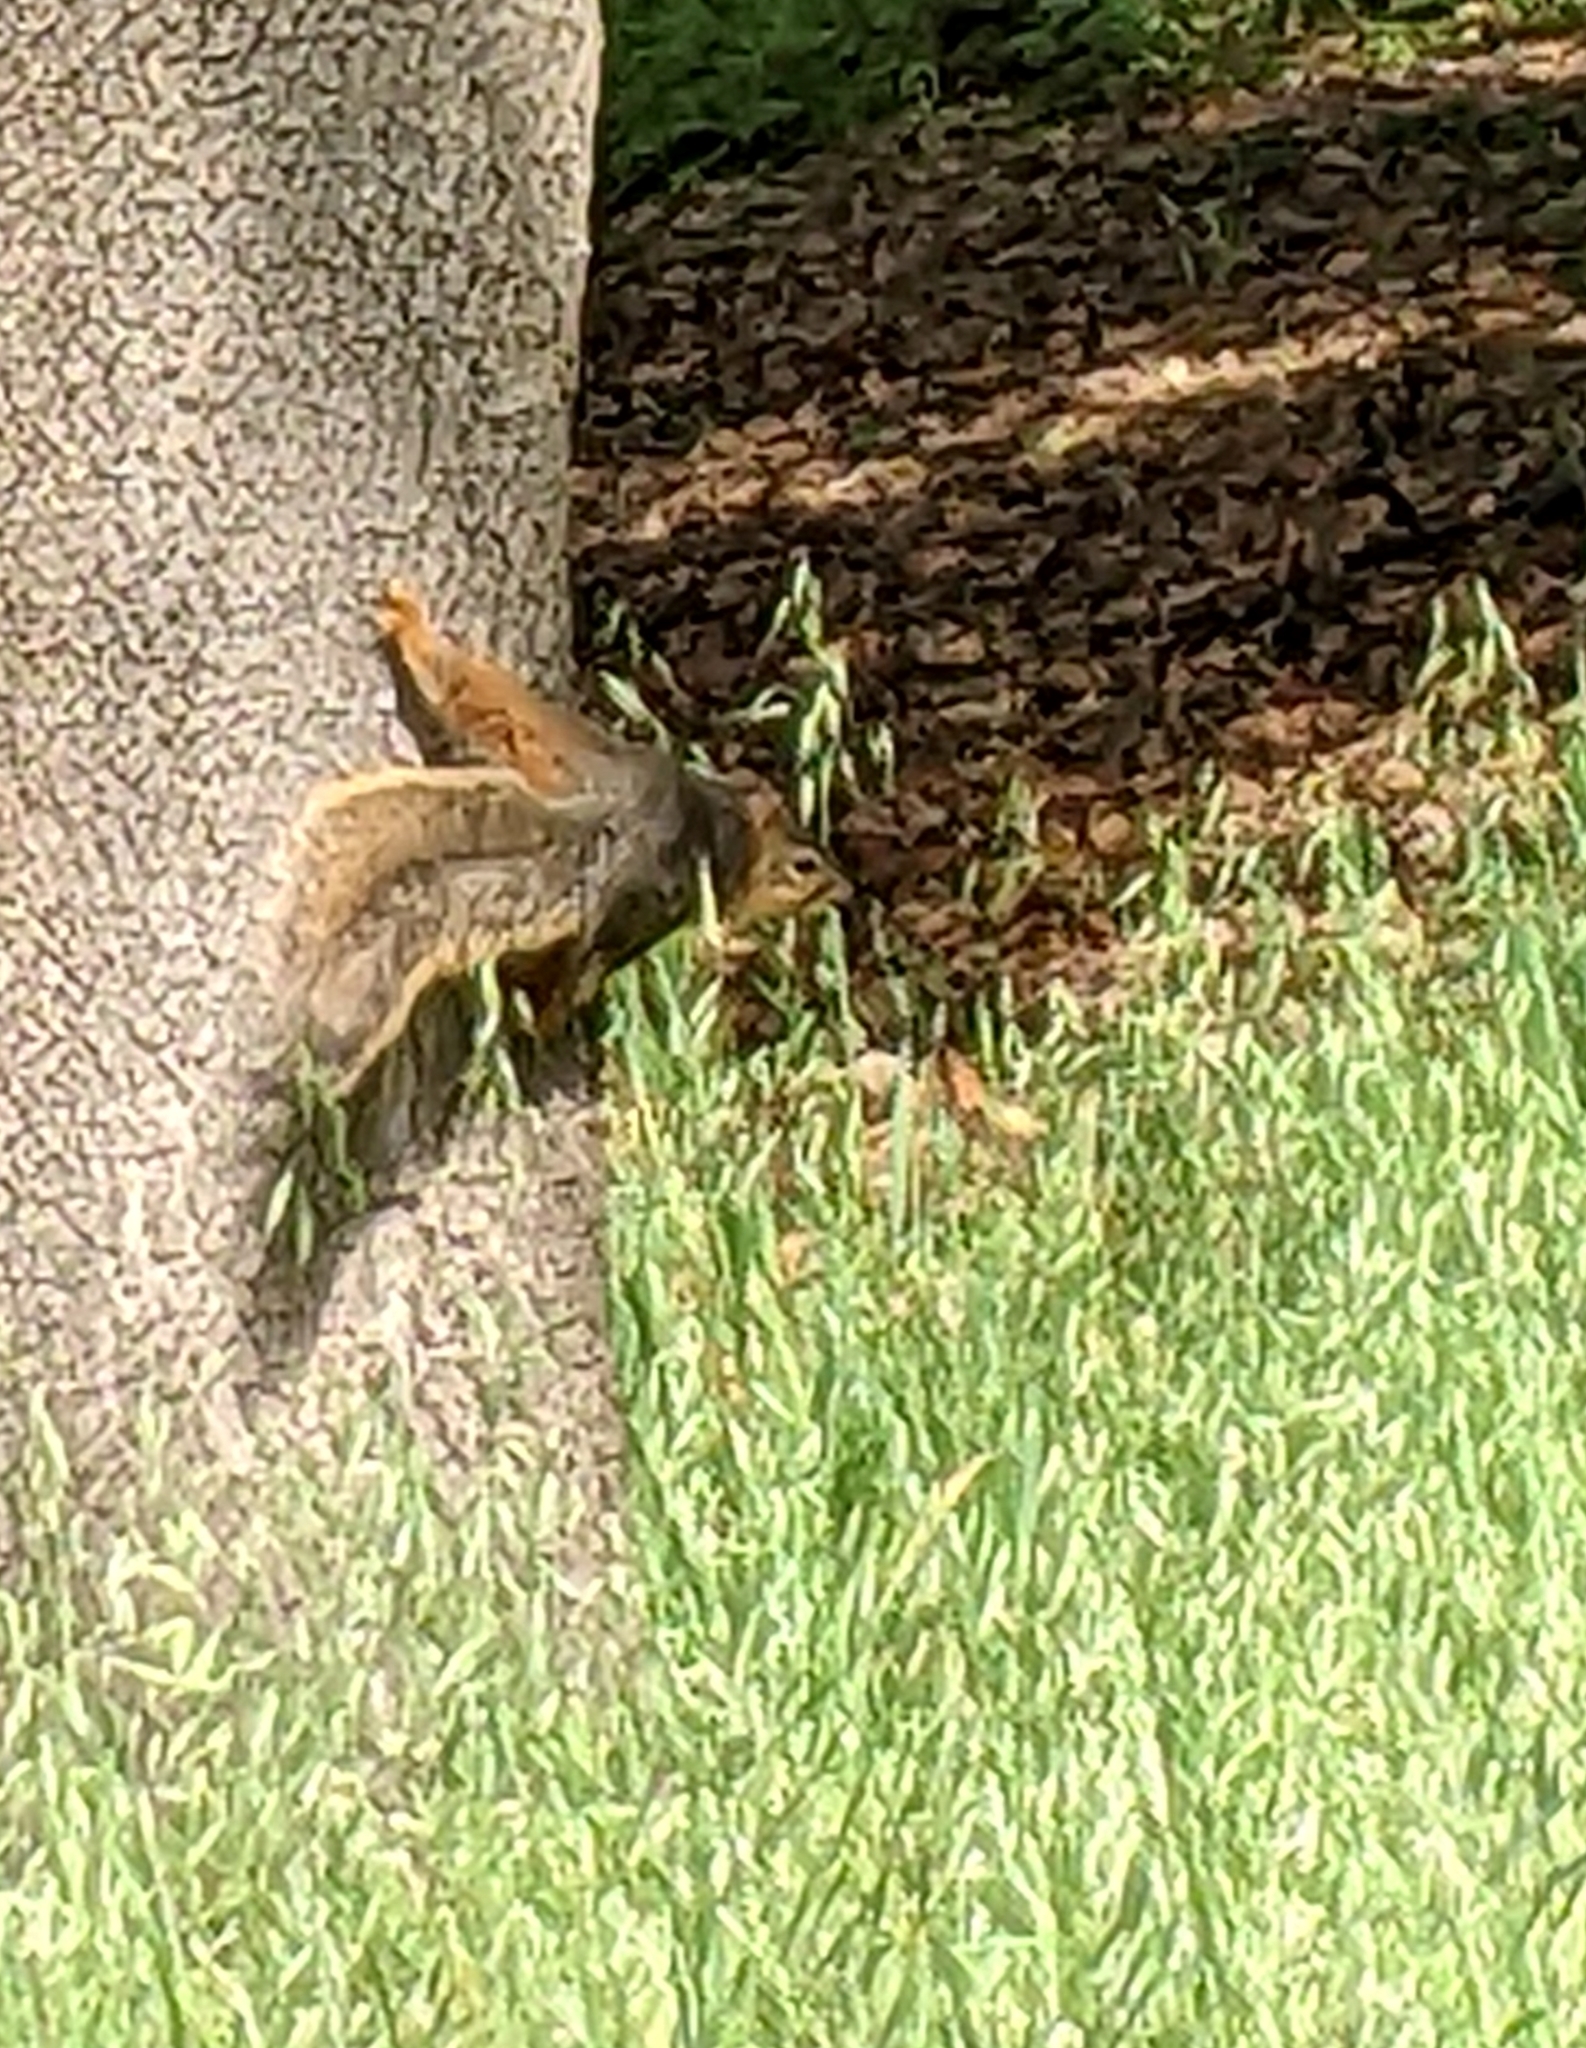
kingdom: Animalia
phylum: Chordata
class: Mammalia
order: Rodentia
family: Sciuridae
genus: Sciurus
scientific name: Sciurus niger
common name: Fox squirrel
